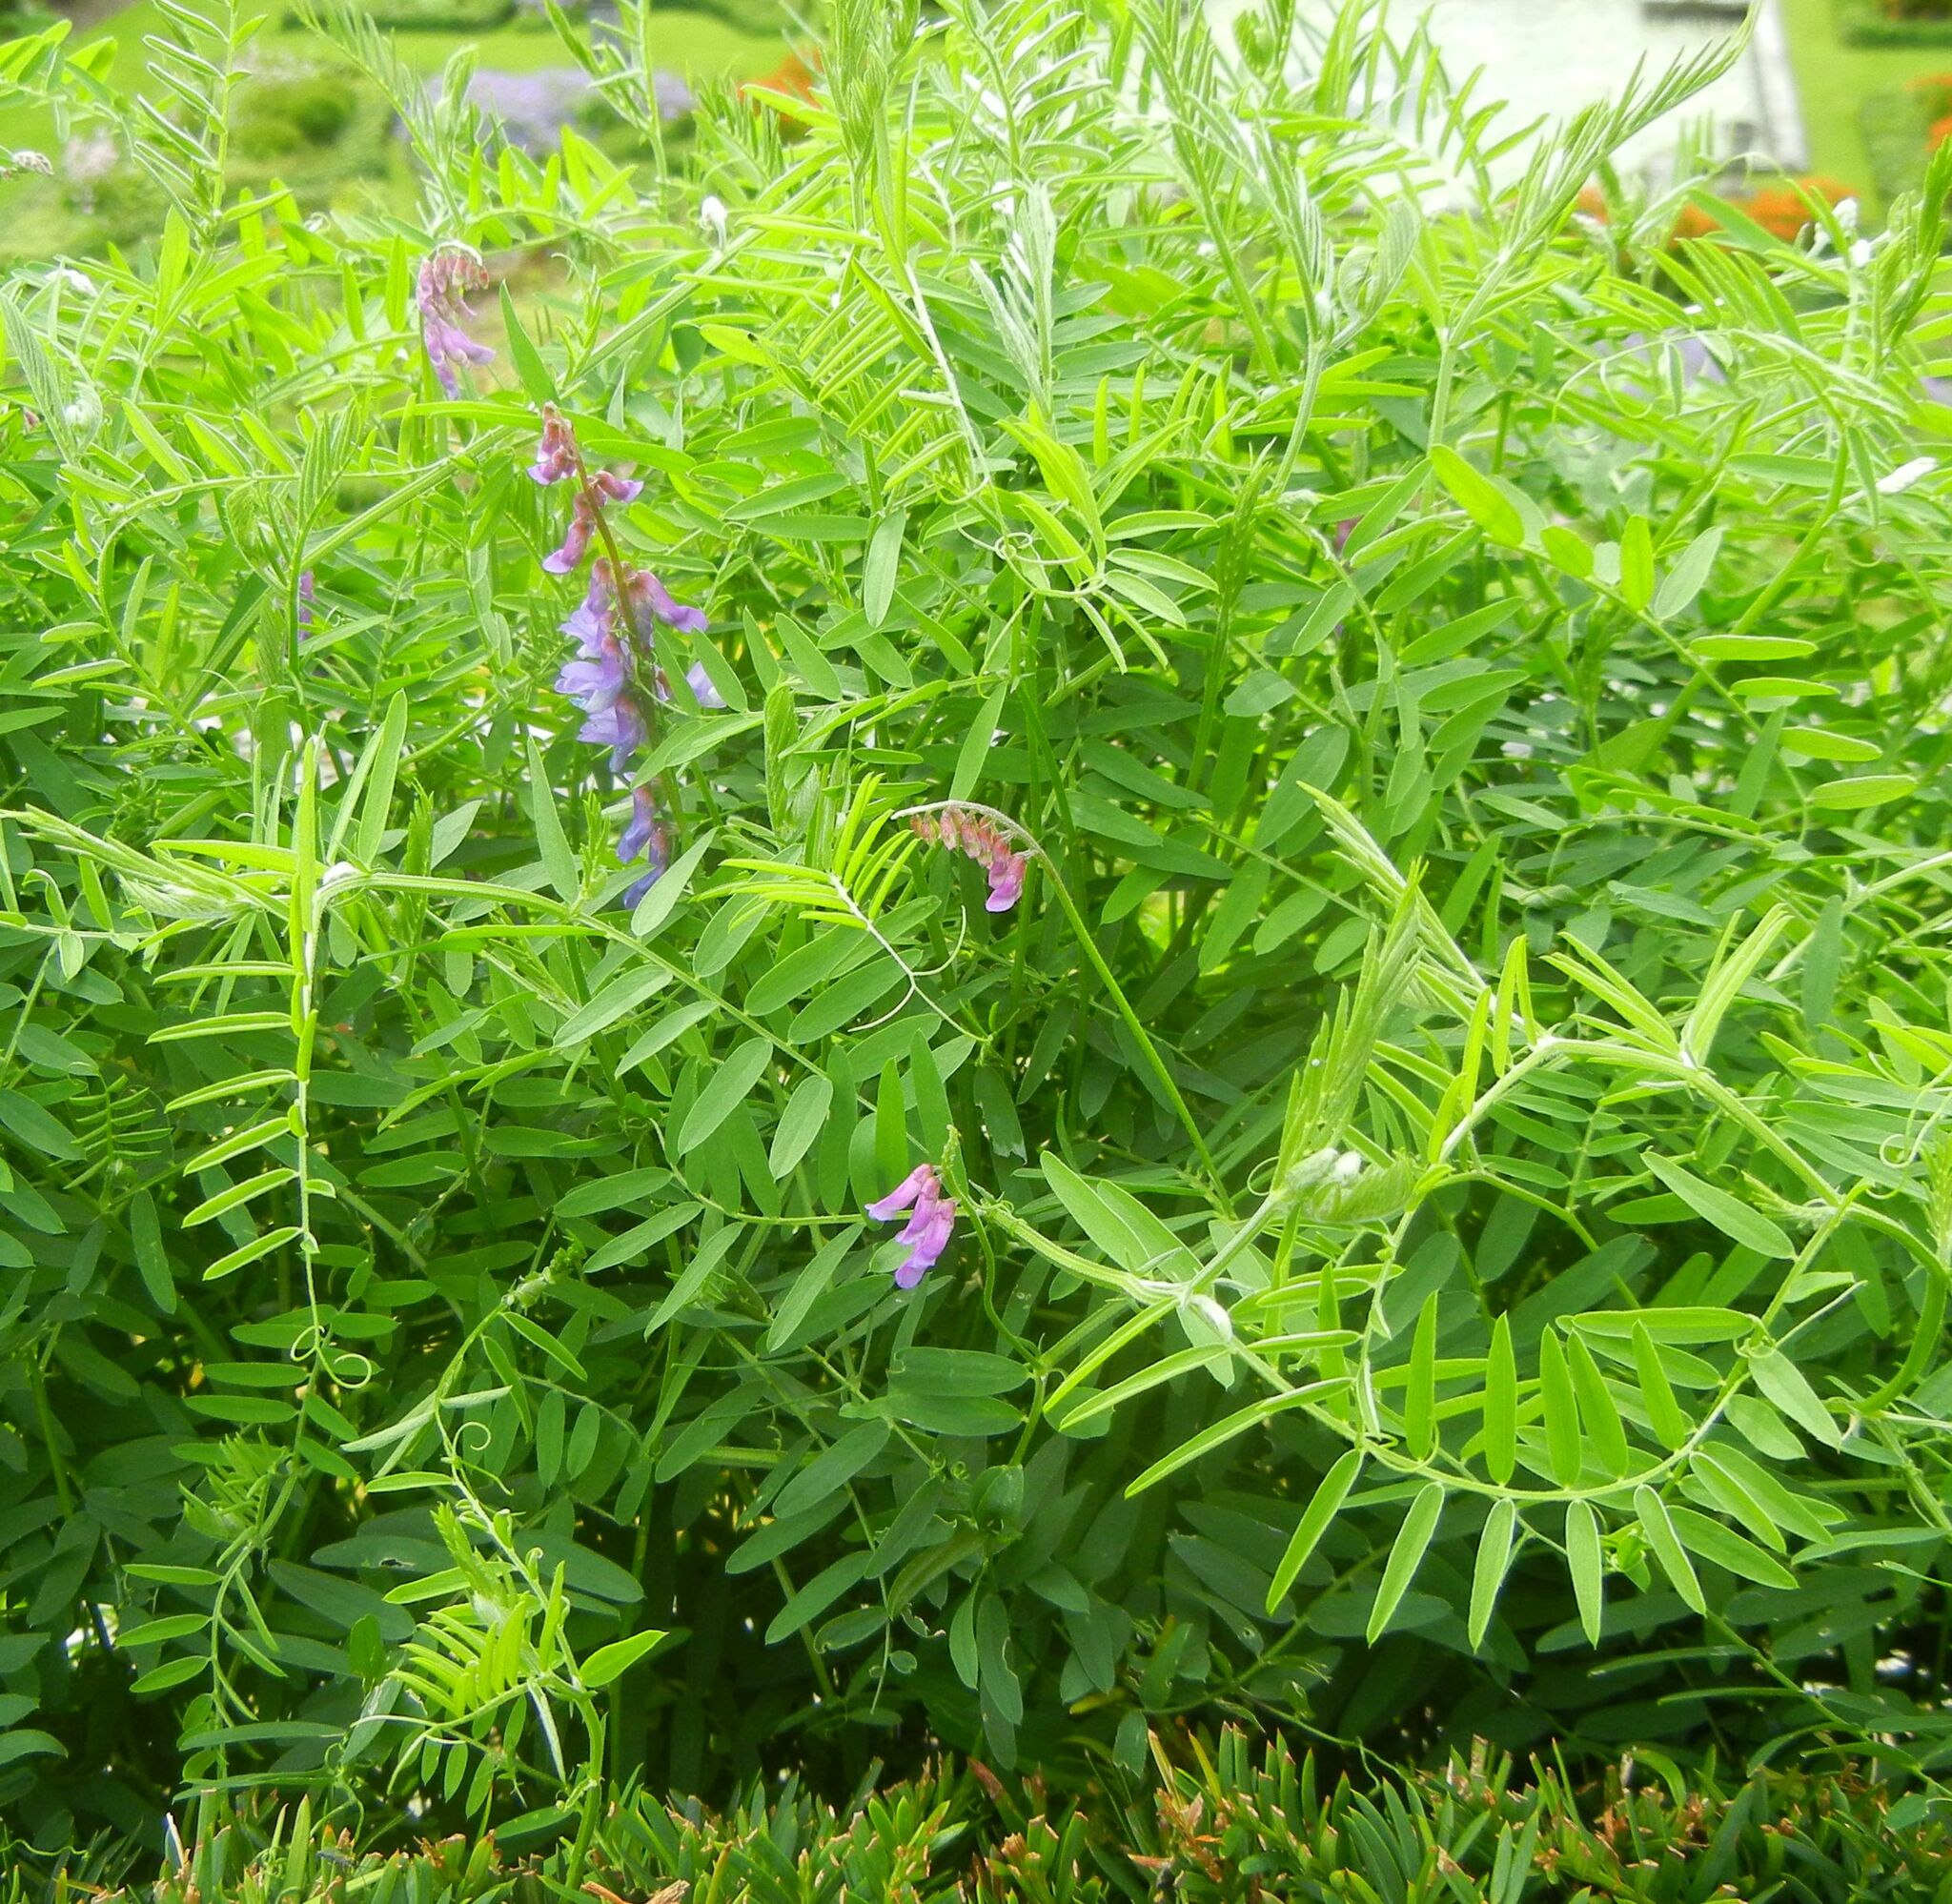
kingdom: Plantae
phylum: Tracheophyta
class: Magnoliopsida
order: Fabales
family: Fabaceae
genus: Vicia
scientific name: Vicia cracca
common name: Bird vetch
